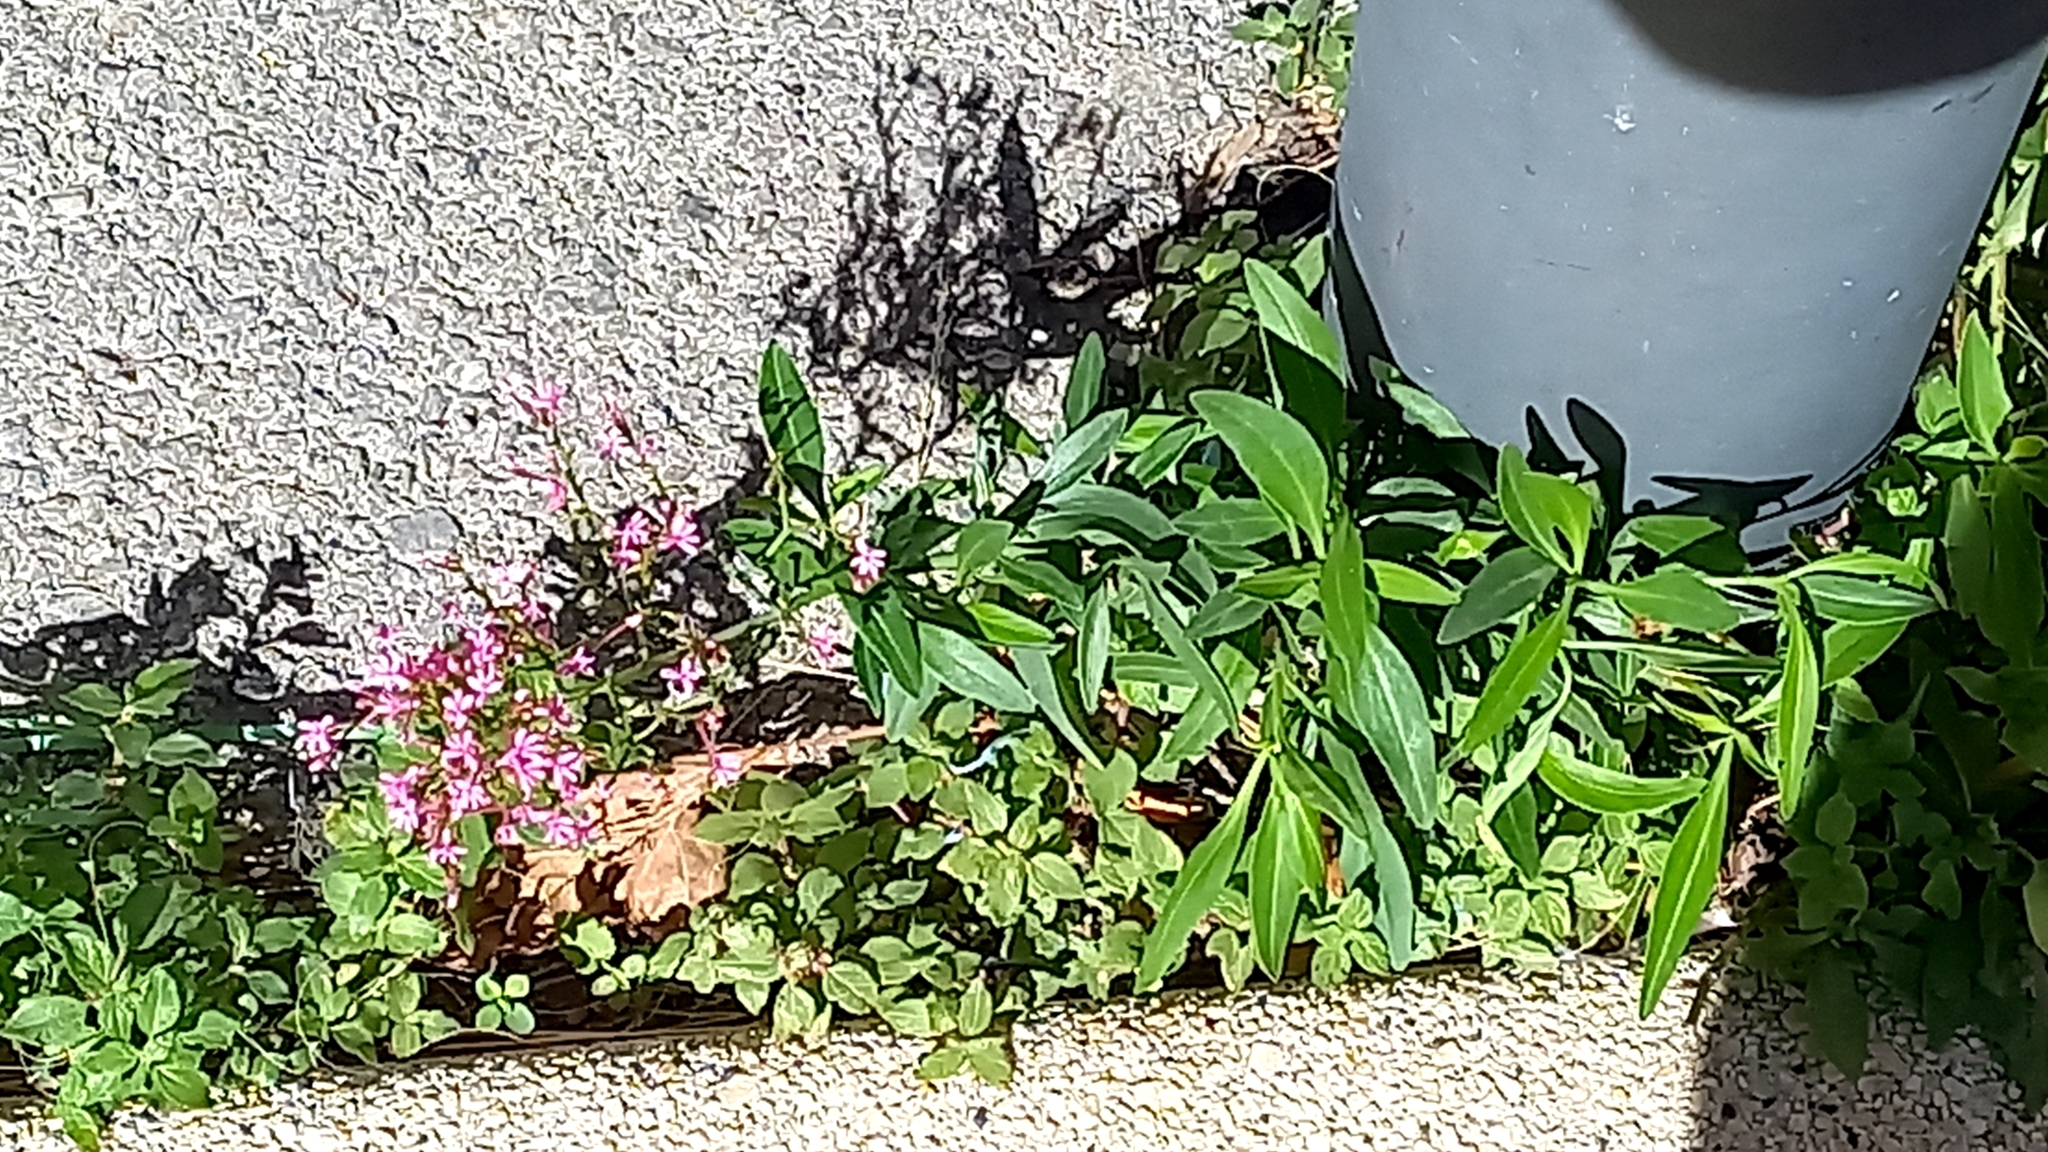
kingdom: Plantae
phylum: Tracheophyta
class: Magnoliopsida
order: Dipsacales
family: Caprifoliaceae
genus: Centranthus
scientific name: Centranthus ruber
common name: Red valerian
